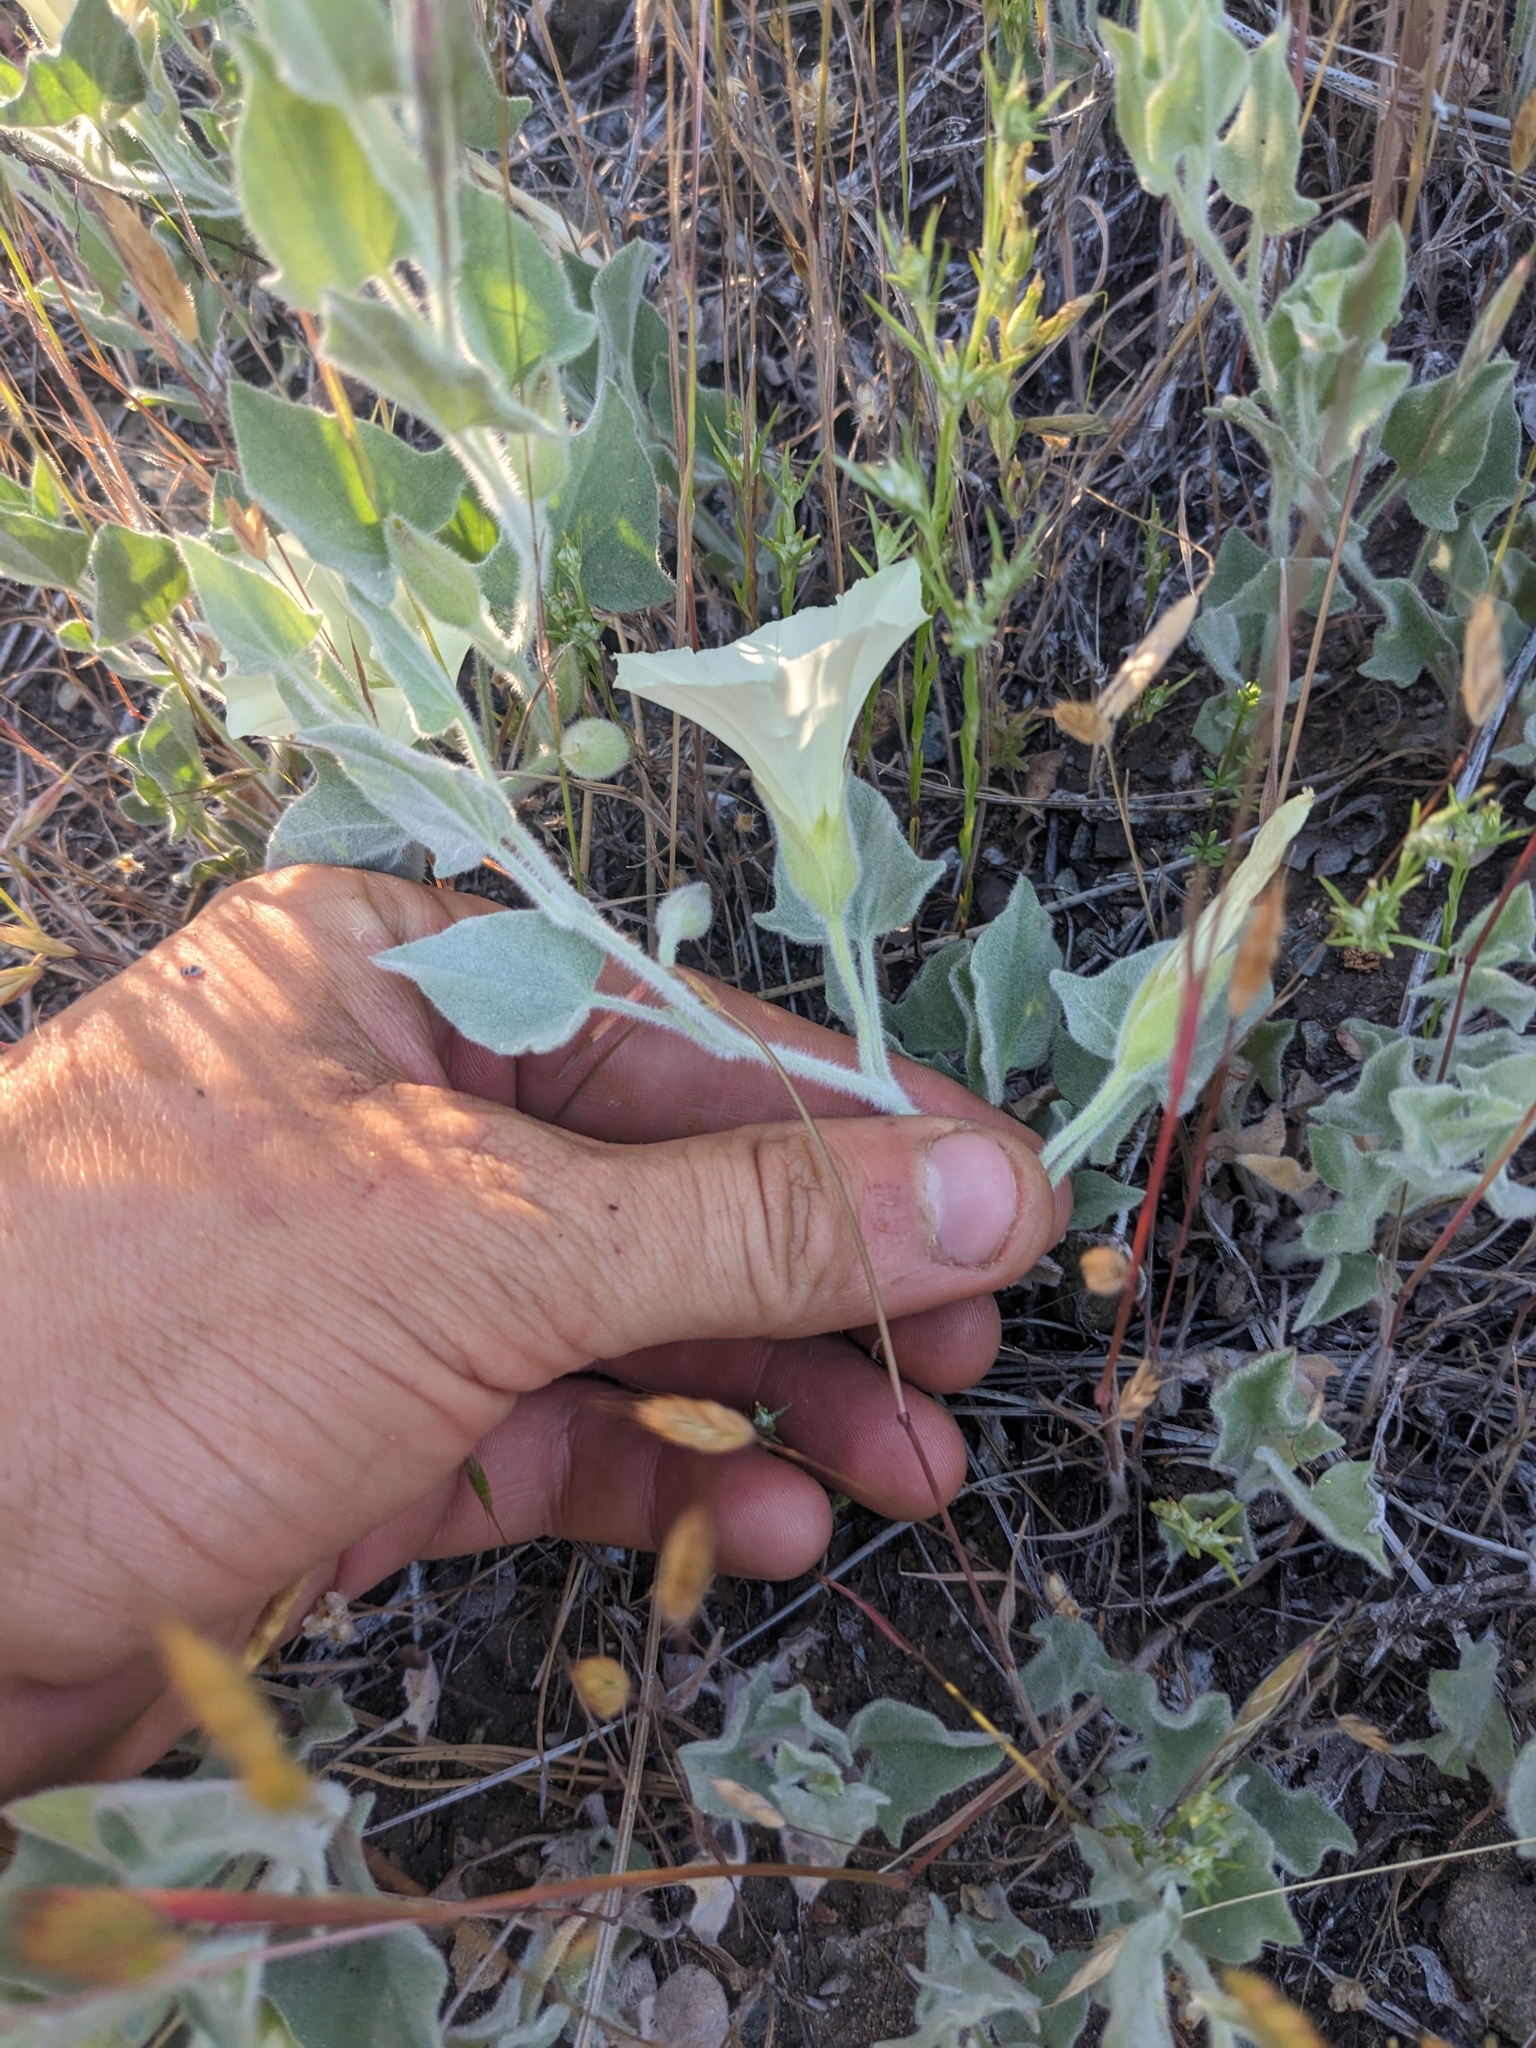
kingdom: Plantae
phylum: Tracheophyta
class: Magnoliopsida
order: Solanales
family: Convolvulaceae
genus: Calystegia
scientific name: Calystegia malacophylla
